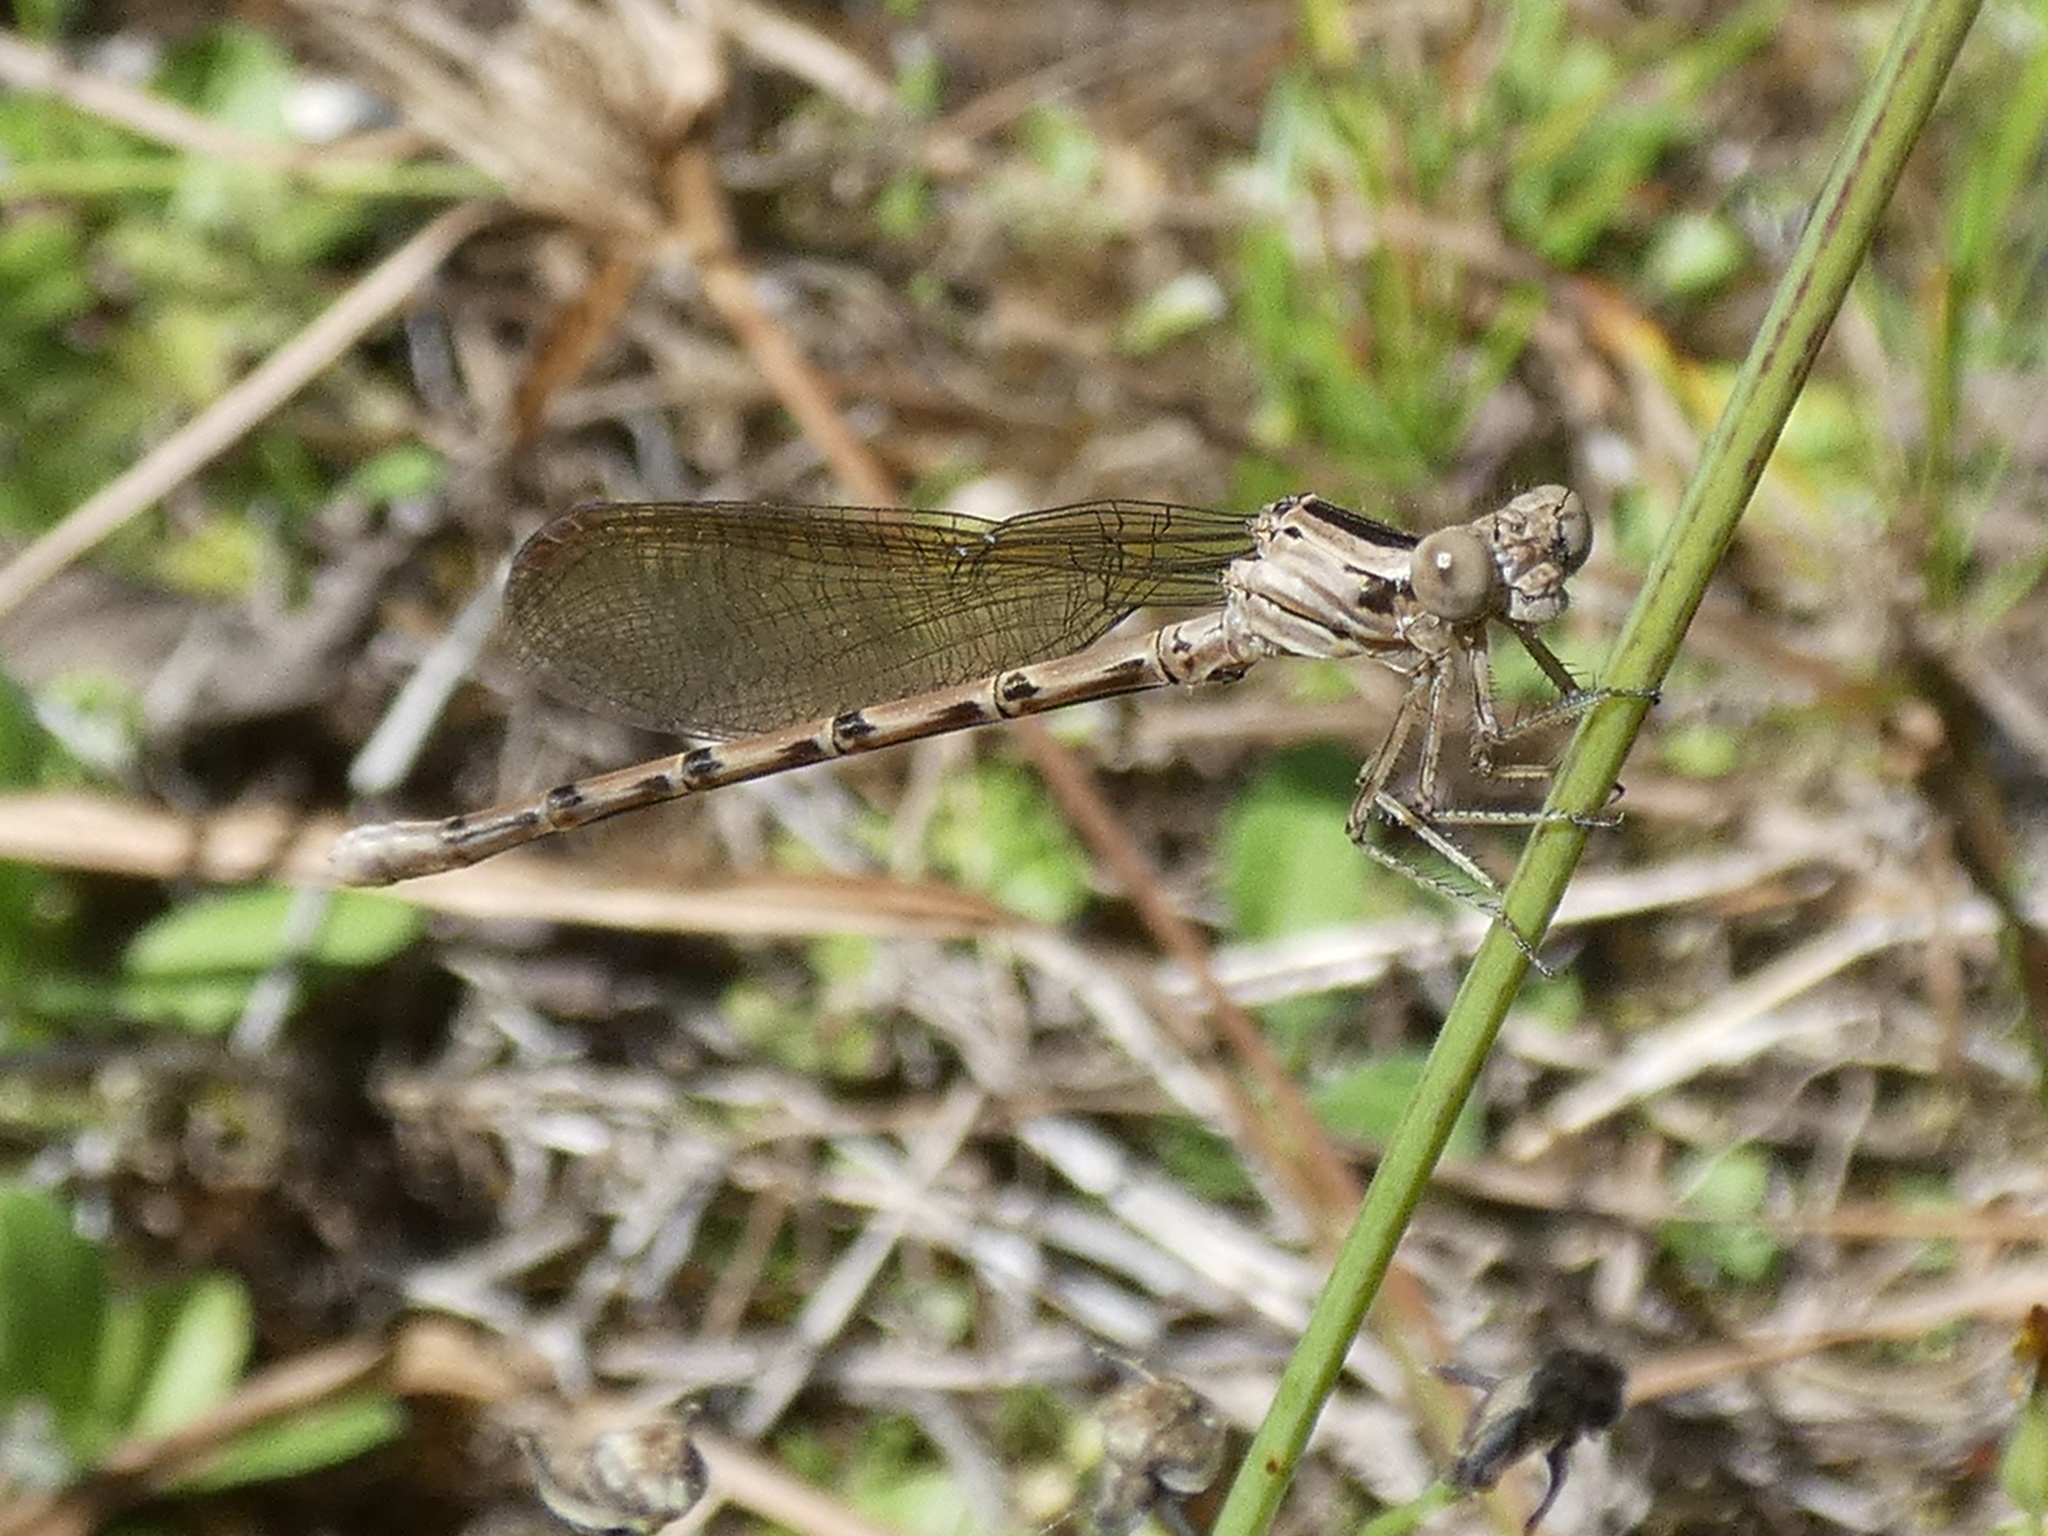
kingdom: Animalia
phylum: Arthropoda
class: Insecta
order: Odonata
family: Coenagrionidae
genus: Argia
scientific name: Argia elongata
